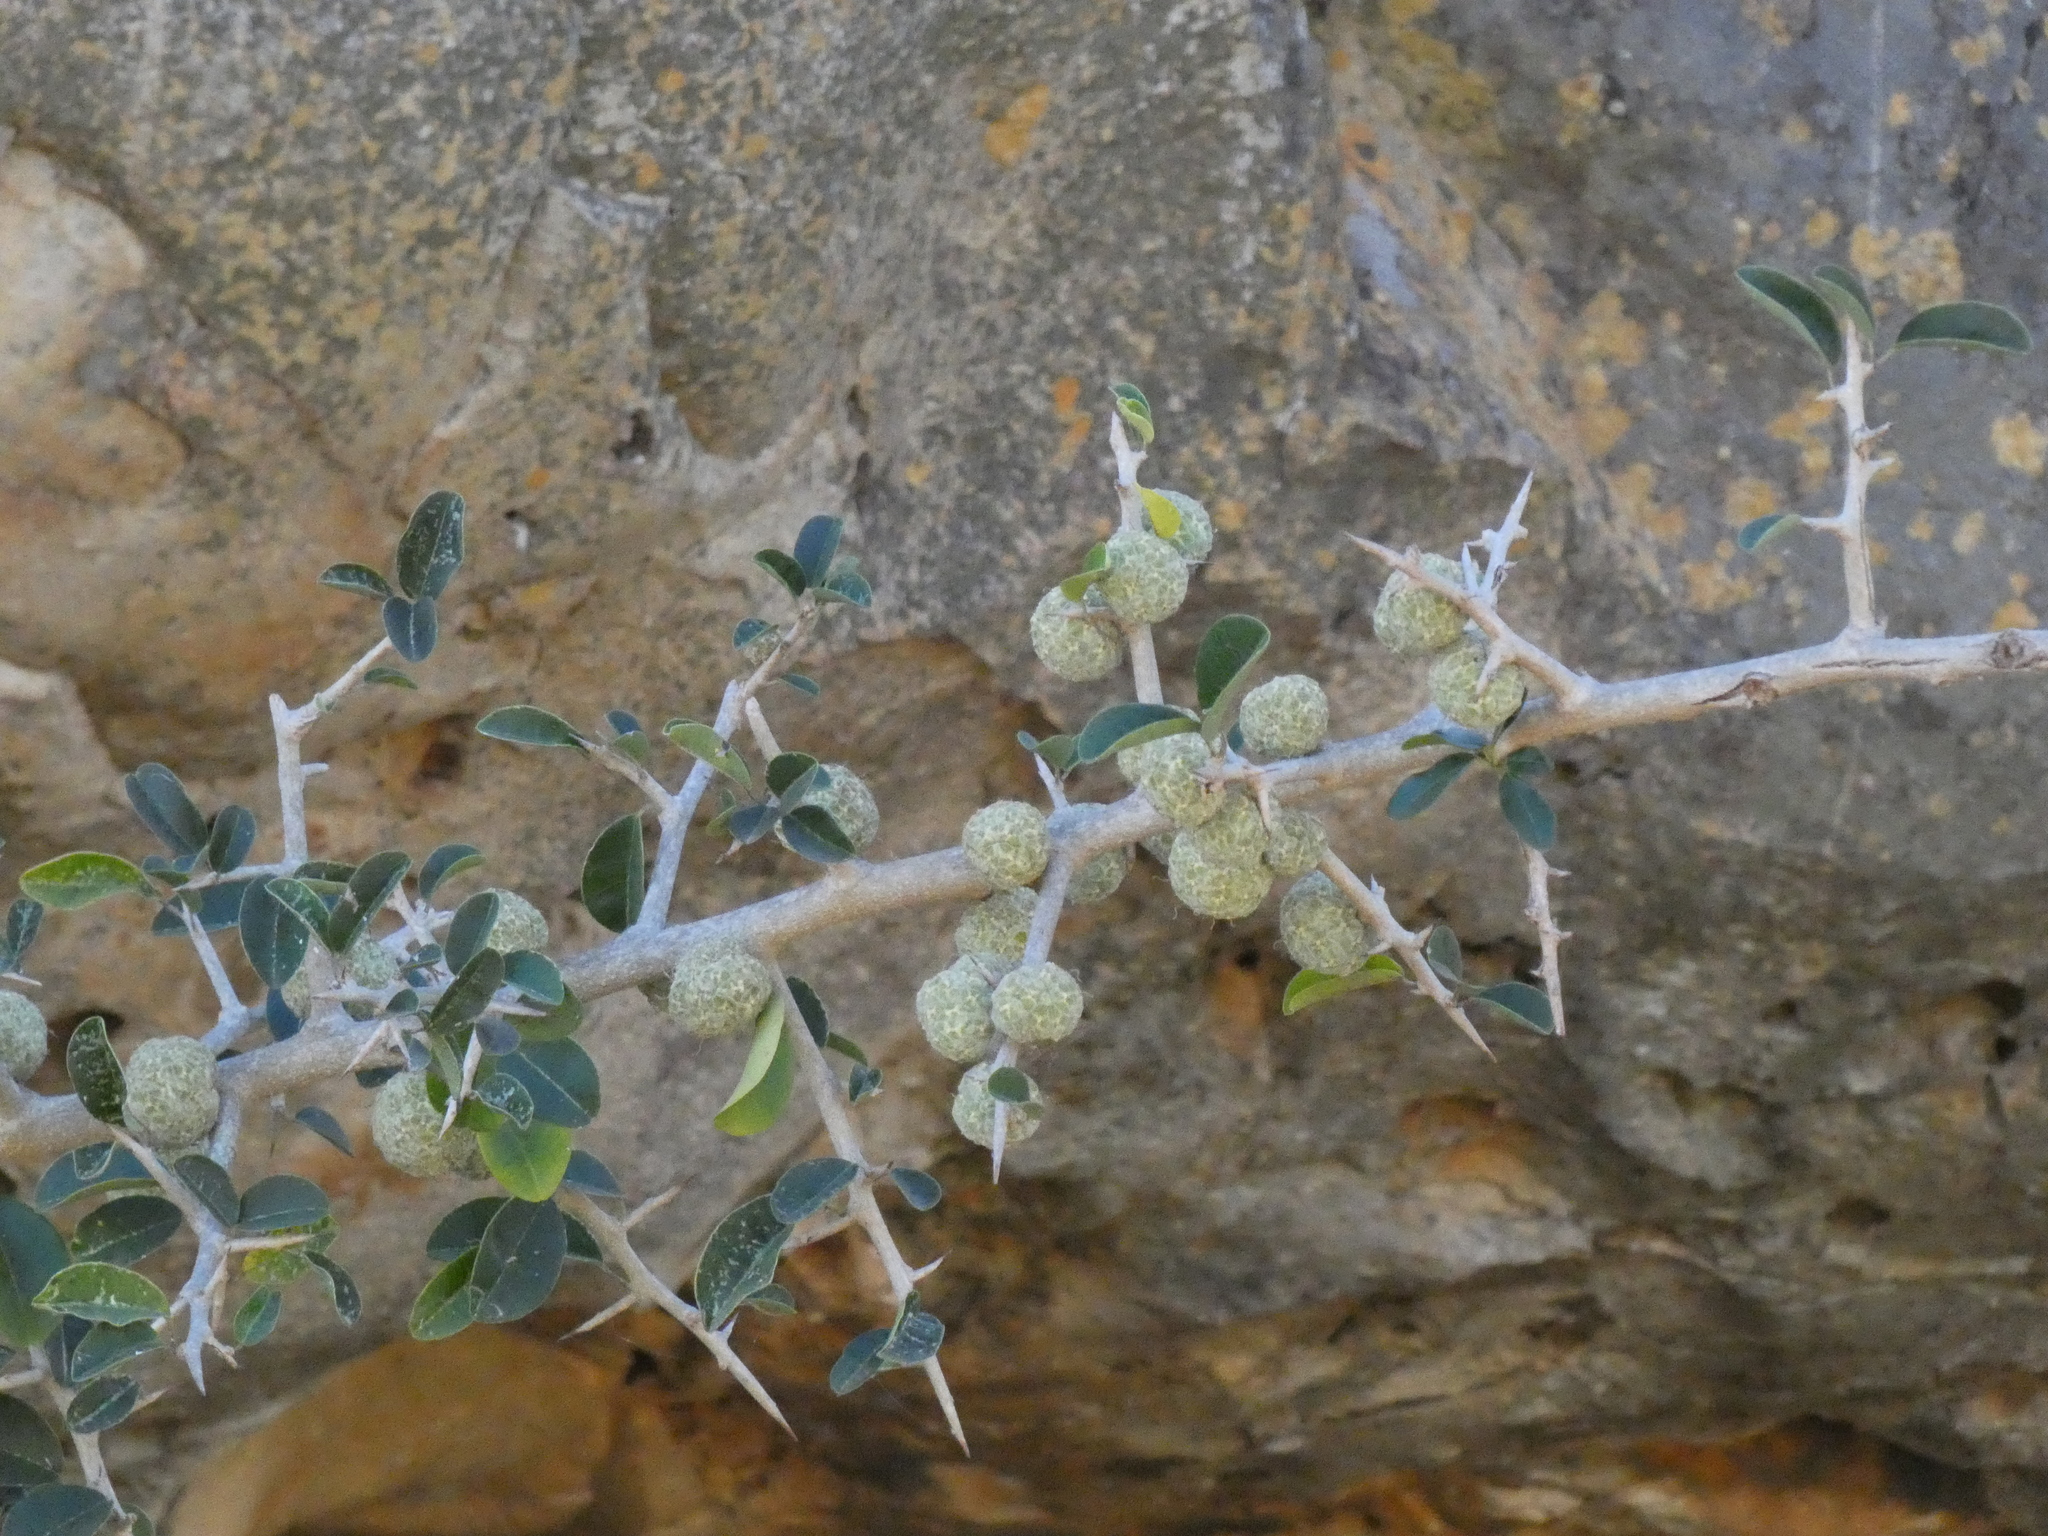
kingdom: Plantae
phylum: Tracheophyta
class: Magnoliopsida
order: Rosales
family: Moraceae
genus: Maclura
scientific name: Maclura africana
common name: African osage orange
